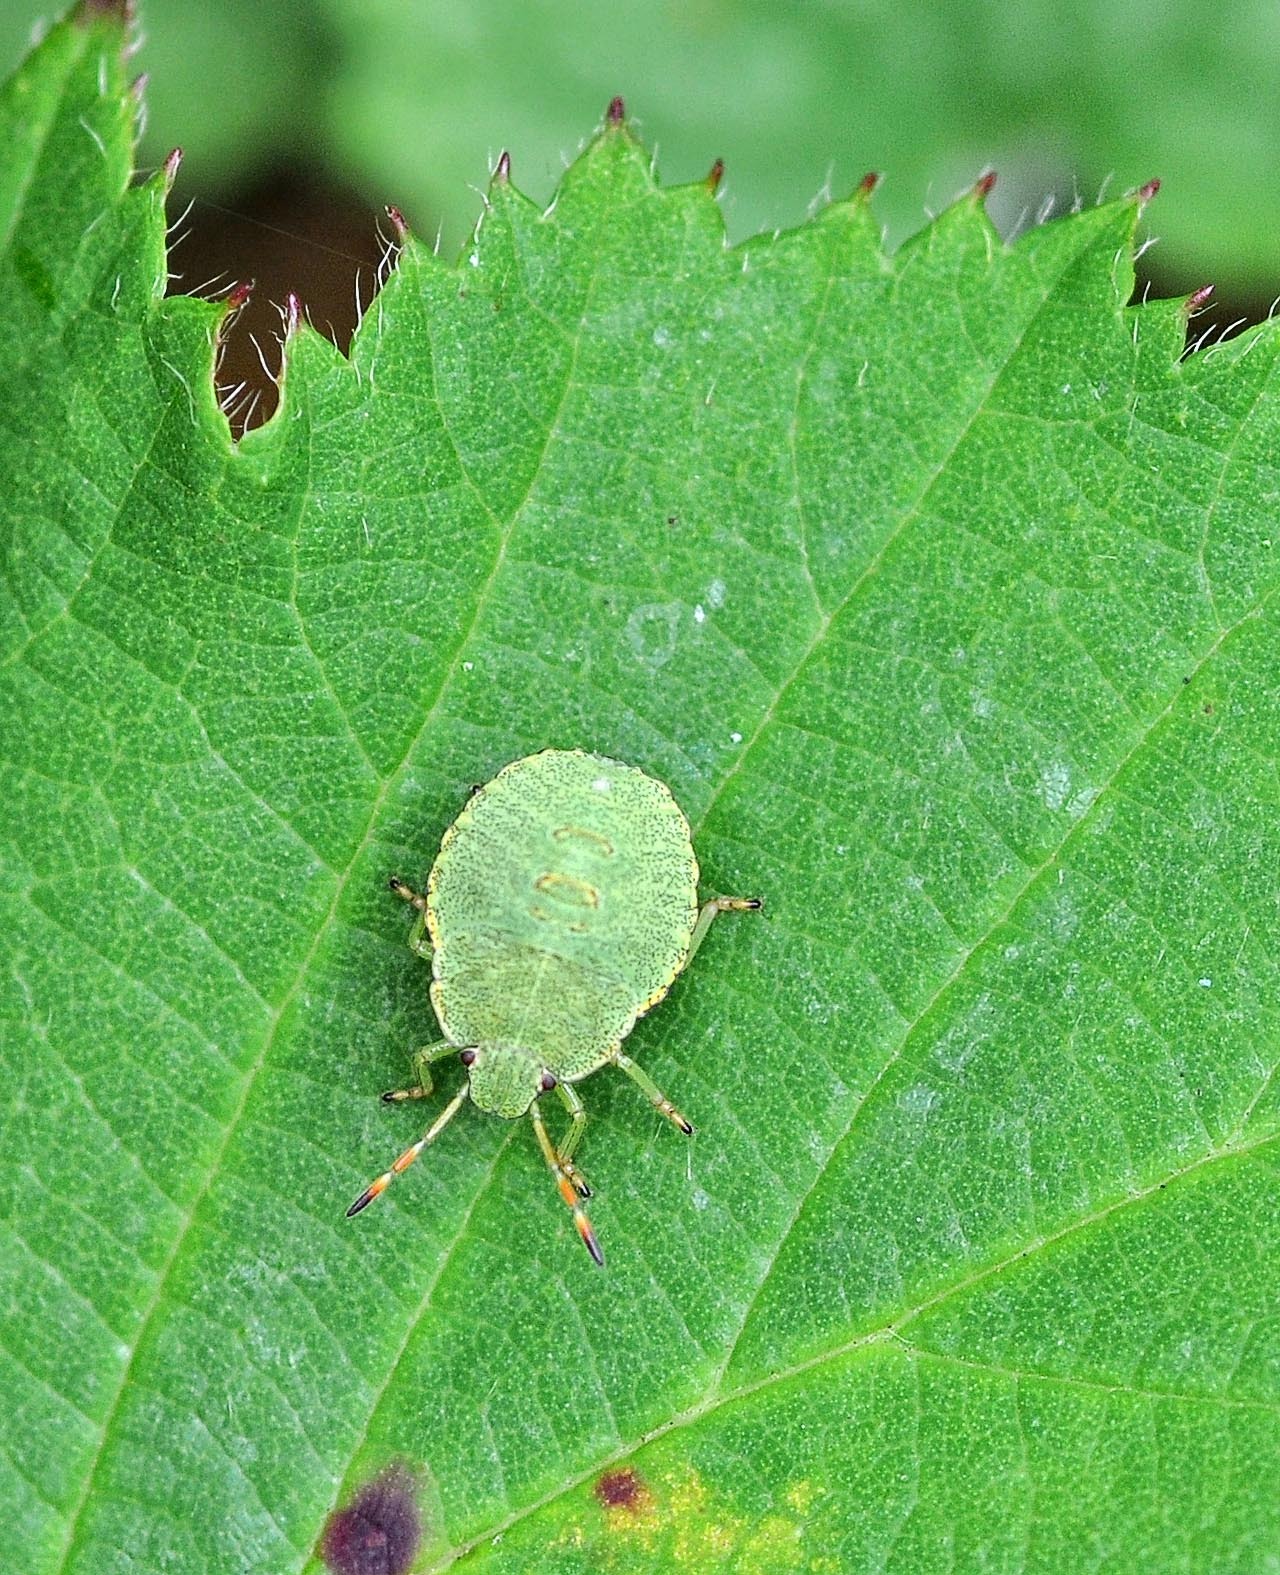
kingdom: Animalia
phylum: Arthropoda
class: Insecta
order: Hemiptera
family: Pentatomidae
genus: Palomena
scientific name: Palomena prasina
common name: Green shieldbug
